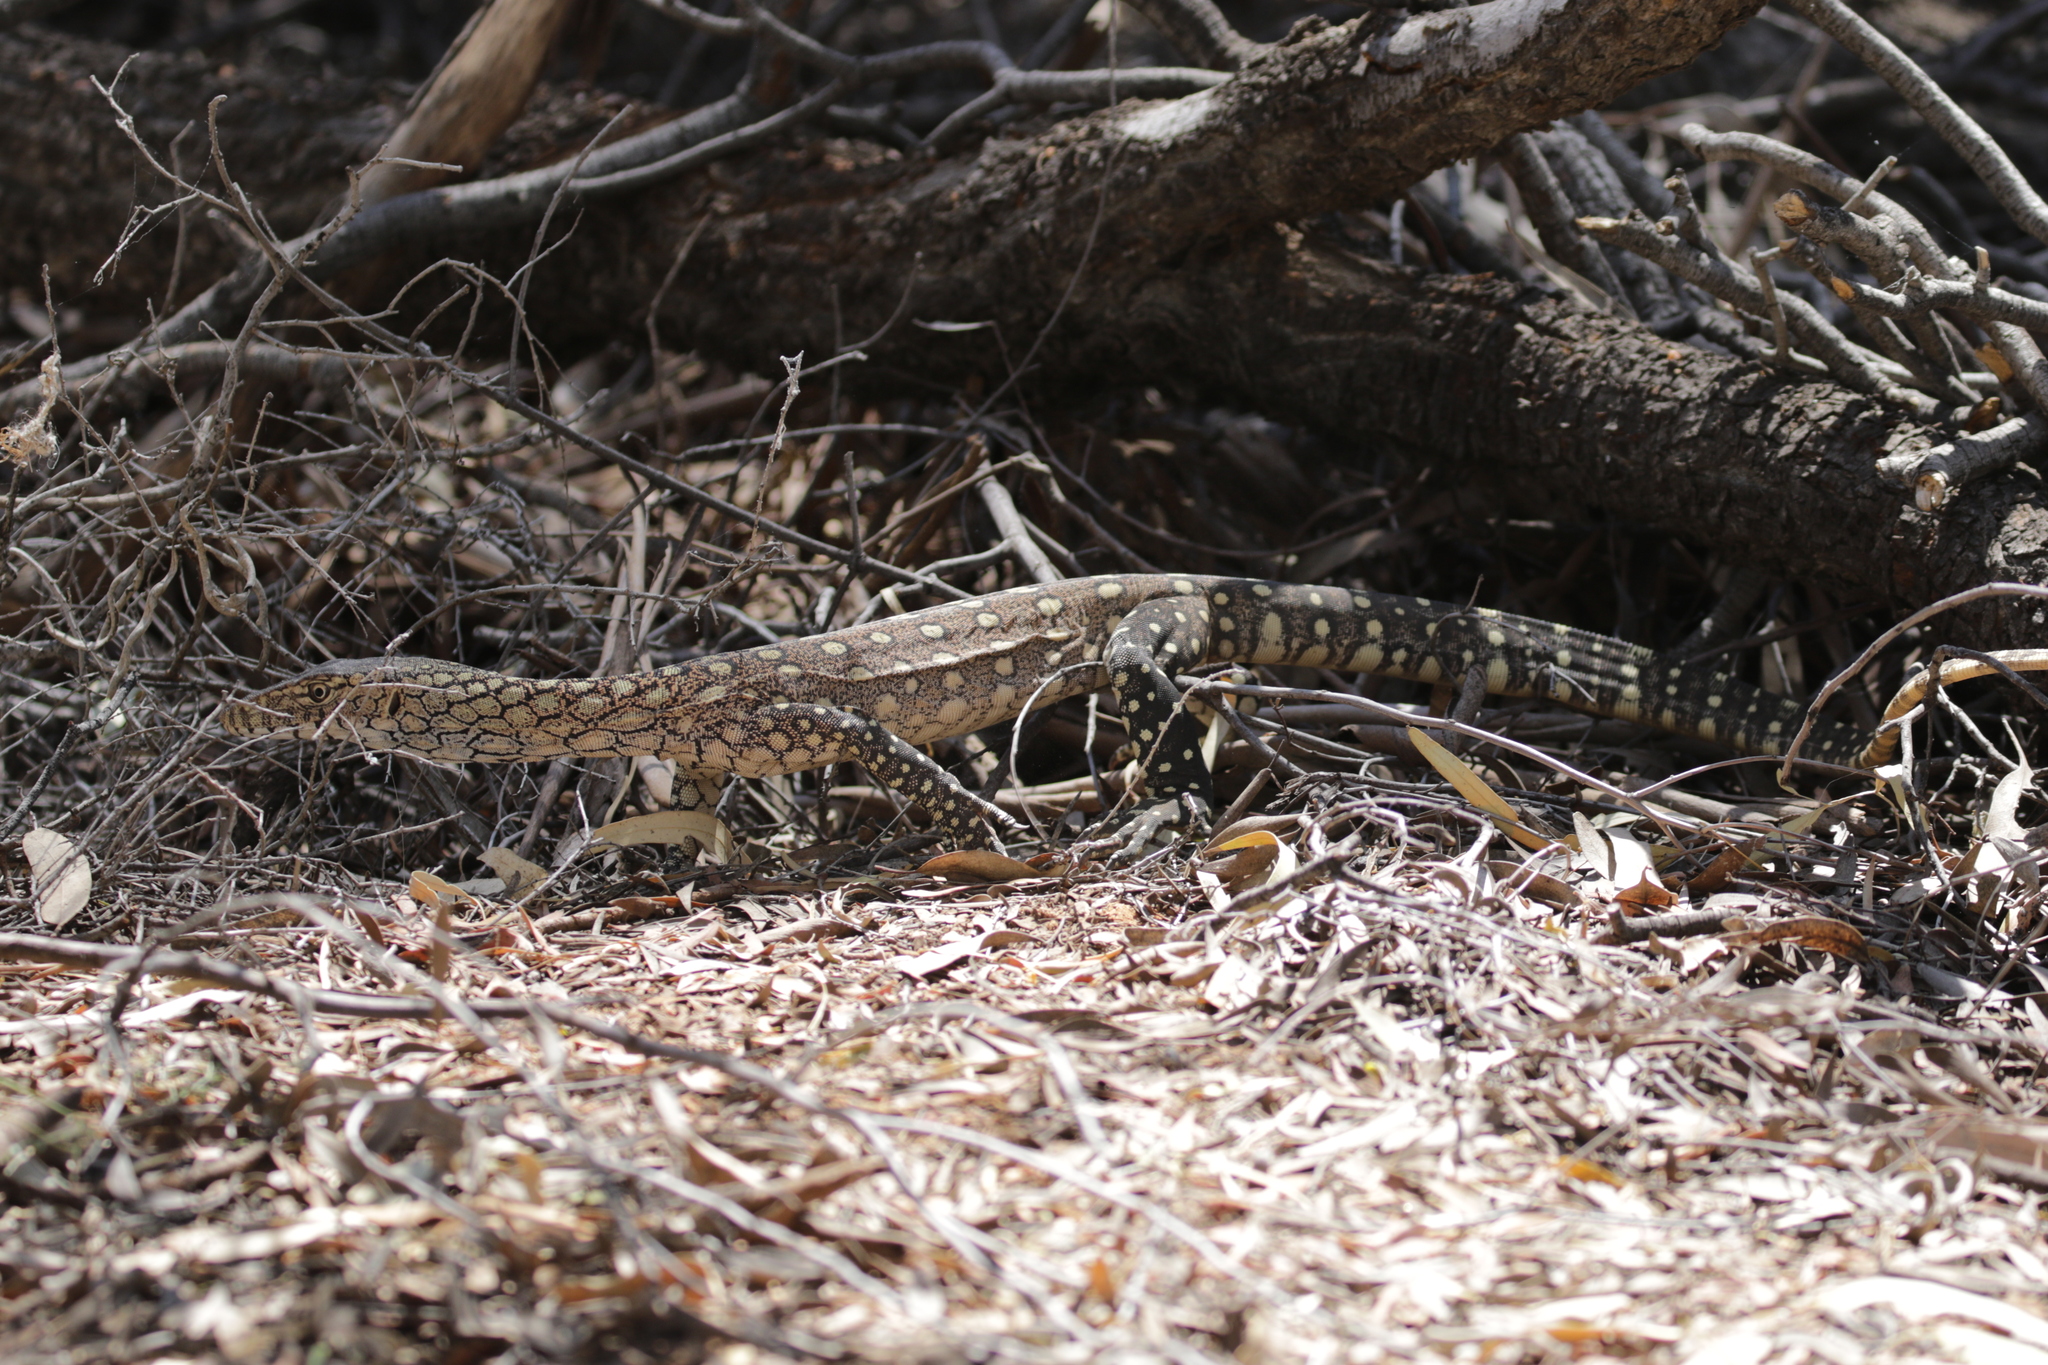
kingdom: Animalia
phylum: Chordata
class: Squamata
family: Varanidae
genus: Varanus
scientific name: Varanus giganteus
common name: Perentie
